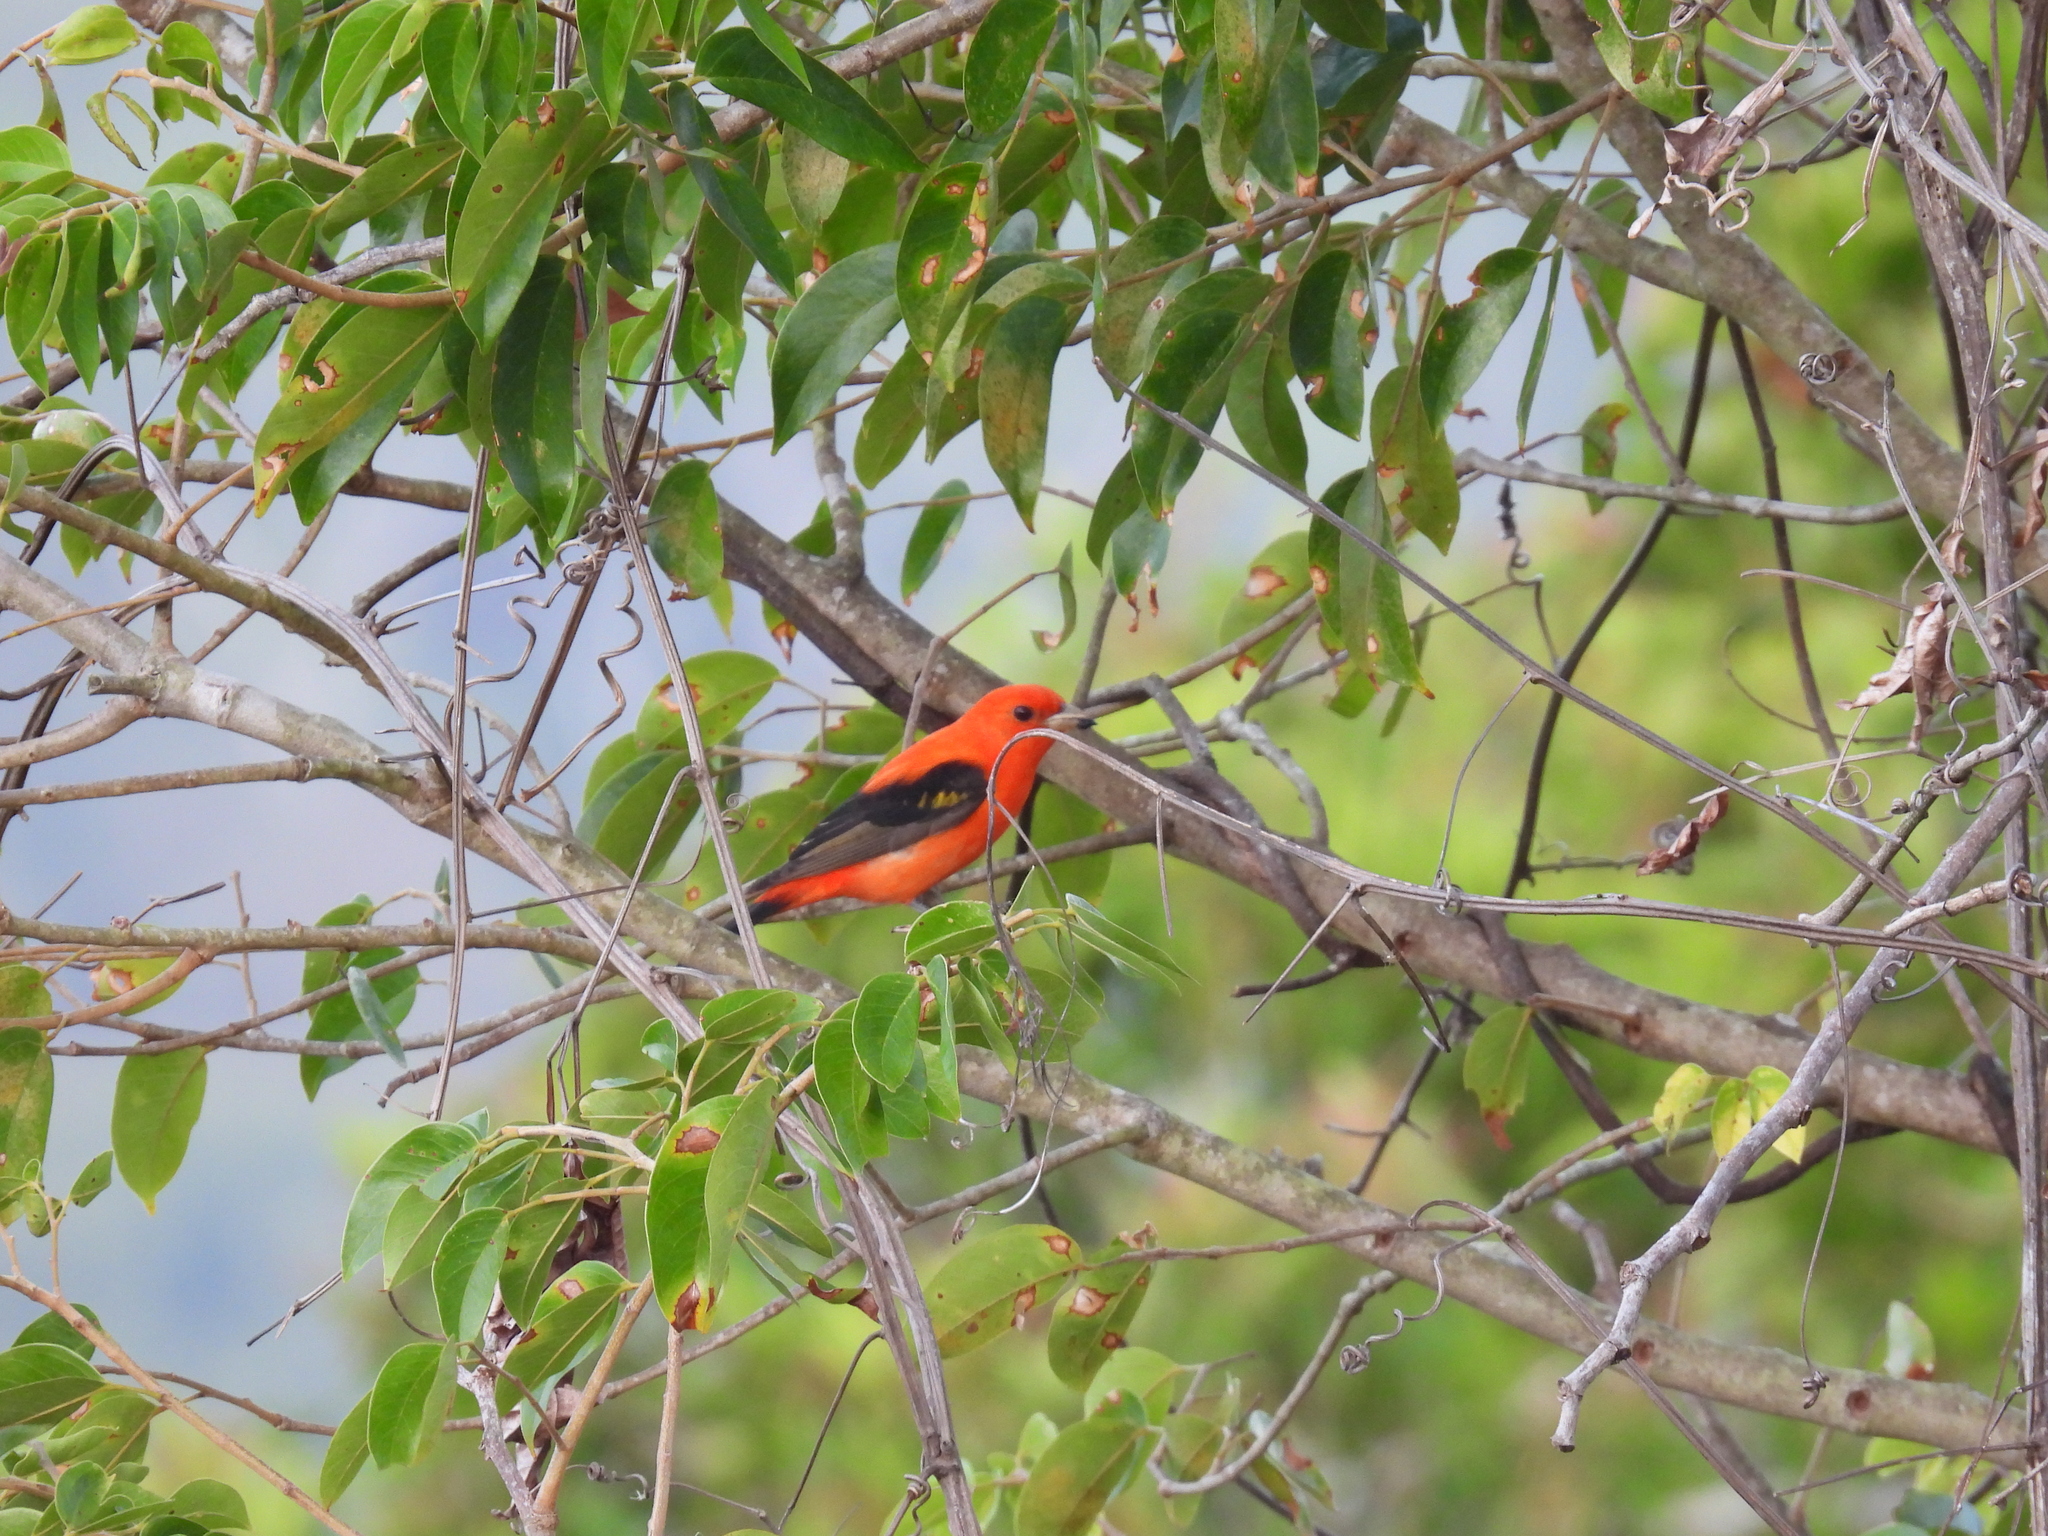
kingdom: Animalia
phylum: Chordata
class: Aves
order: Passeriformes
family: Cardinalidae
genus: Piranga
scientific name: Piranga olivacea
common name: Scarlet tanager
